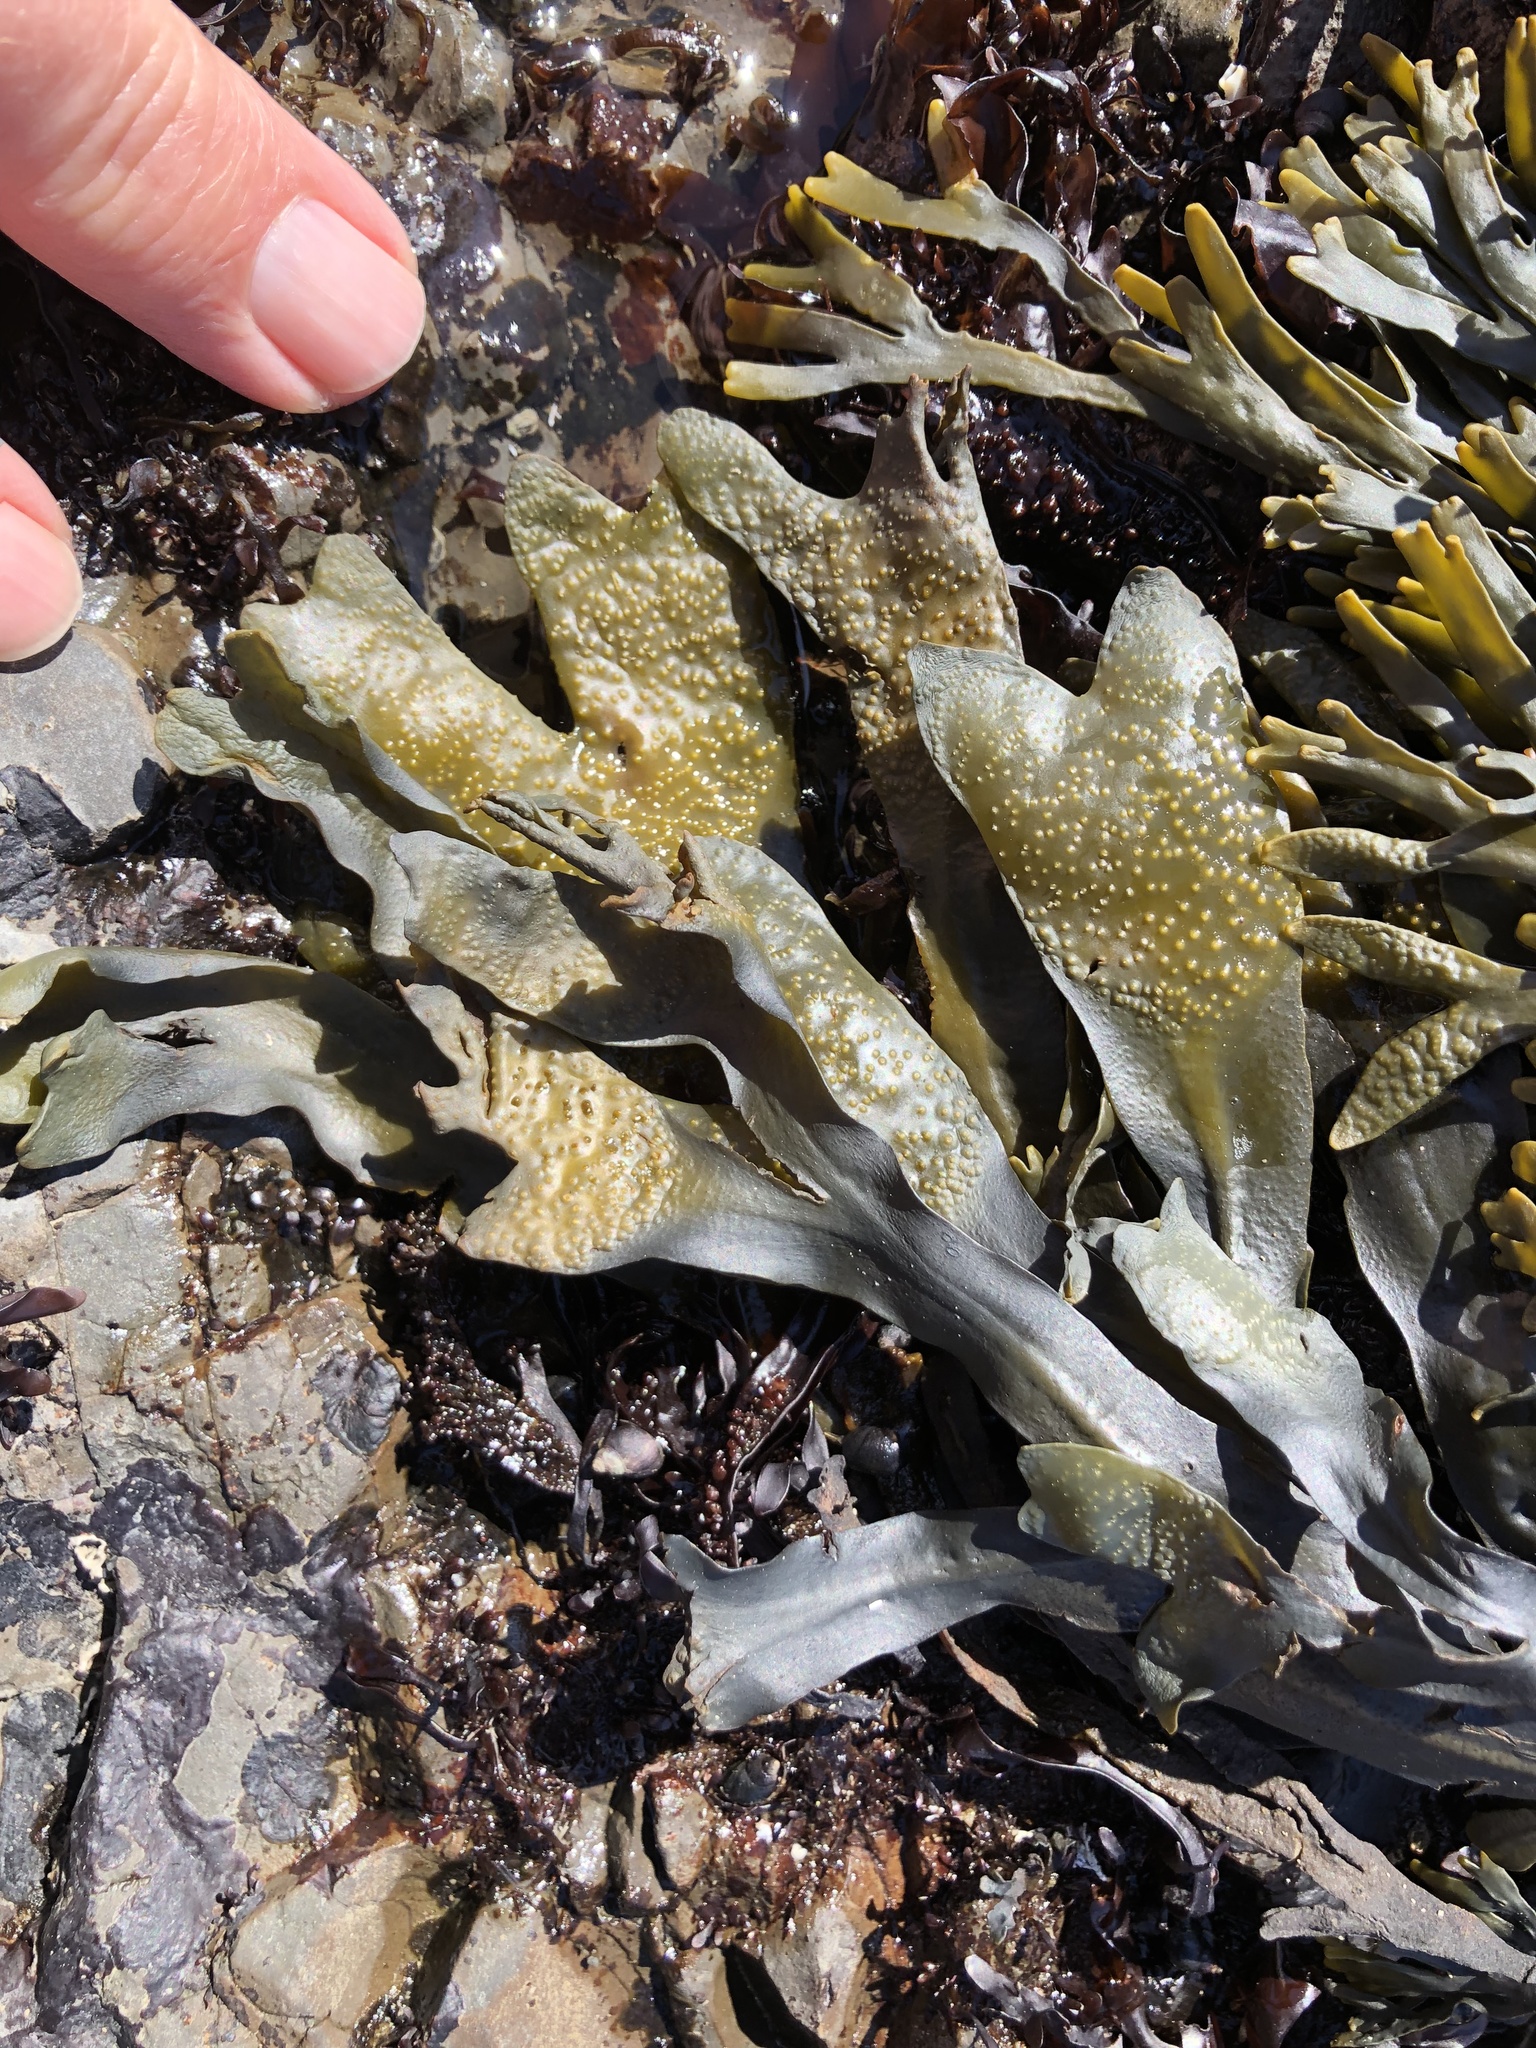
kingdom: Chromista
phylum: Ochrophyta
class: Phaeophyceae
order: Fucales
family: Fucaceae
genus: Fucus
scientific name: Fucus distichus
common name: Rockweed
